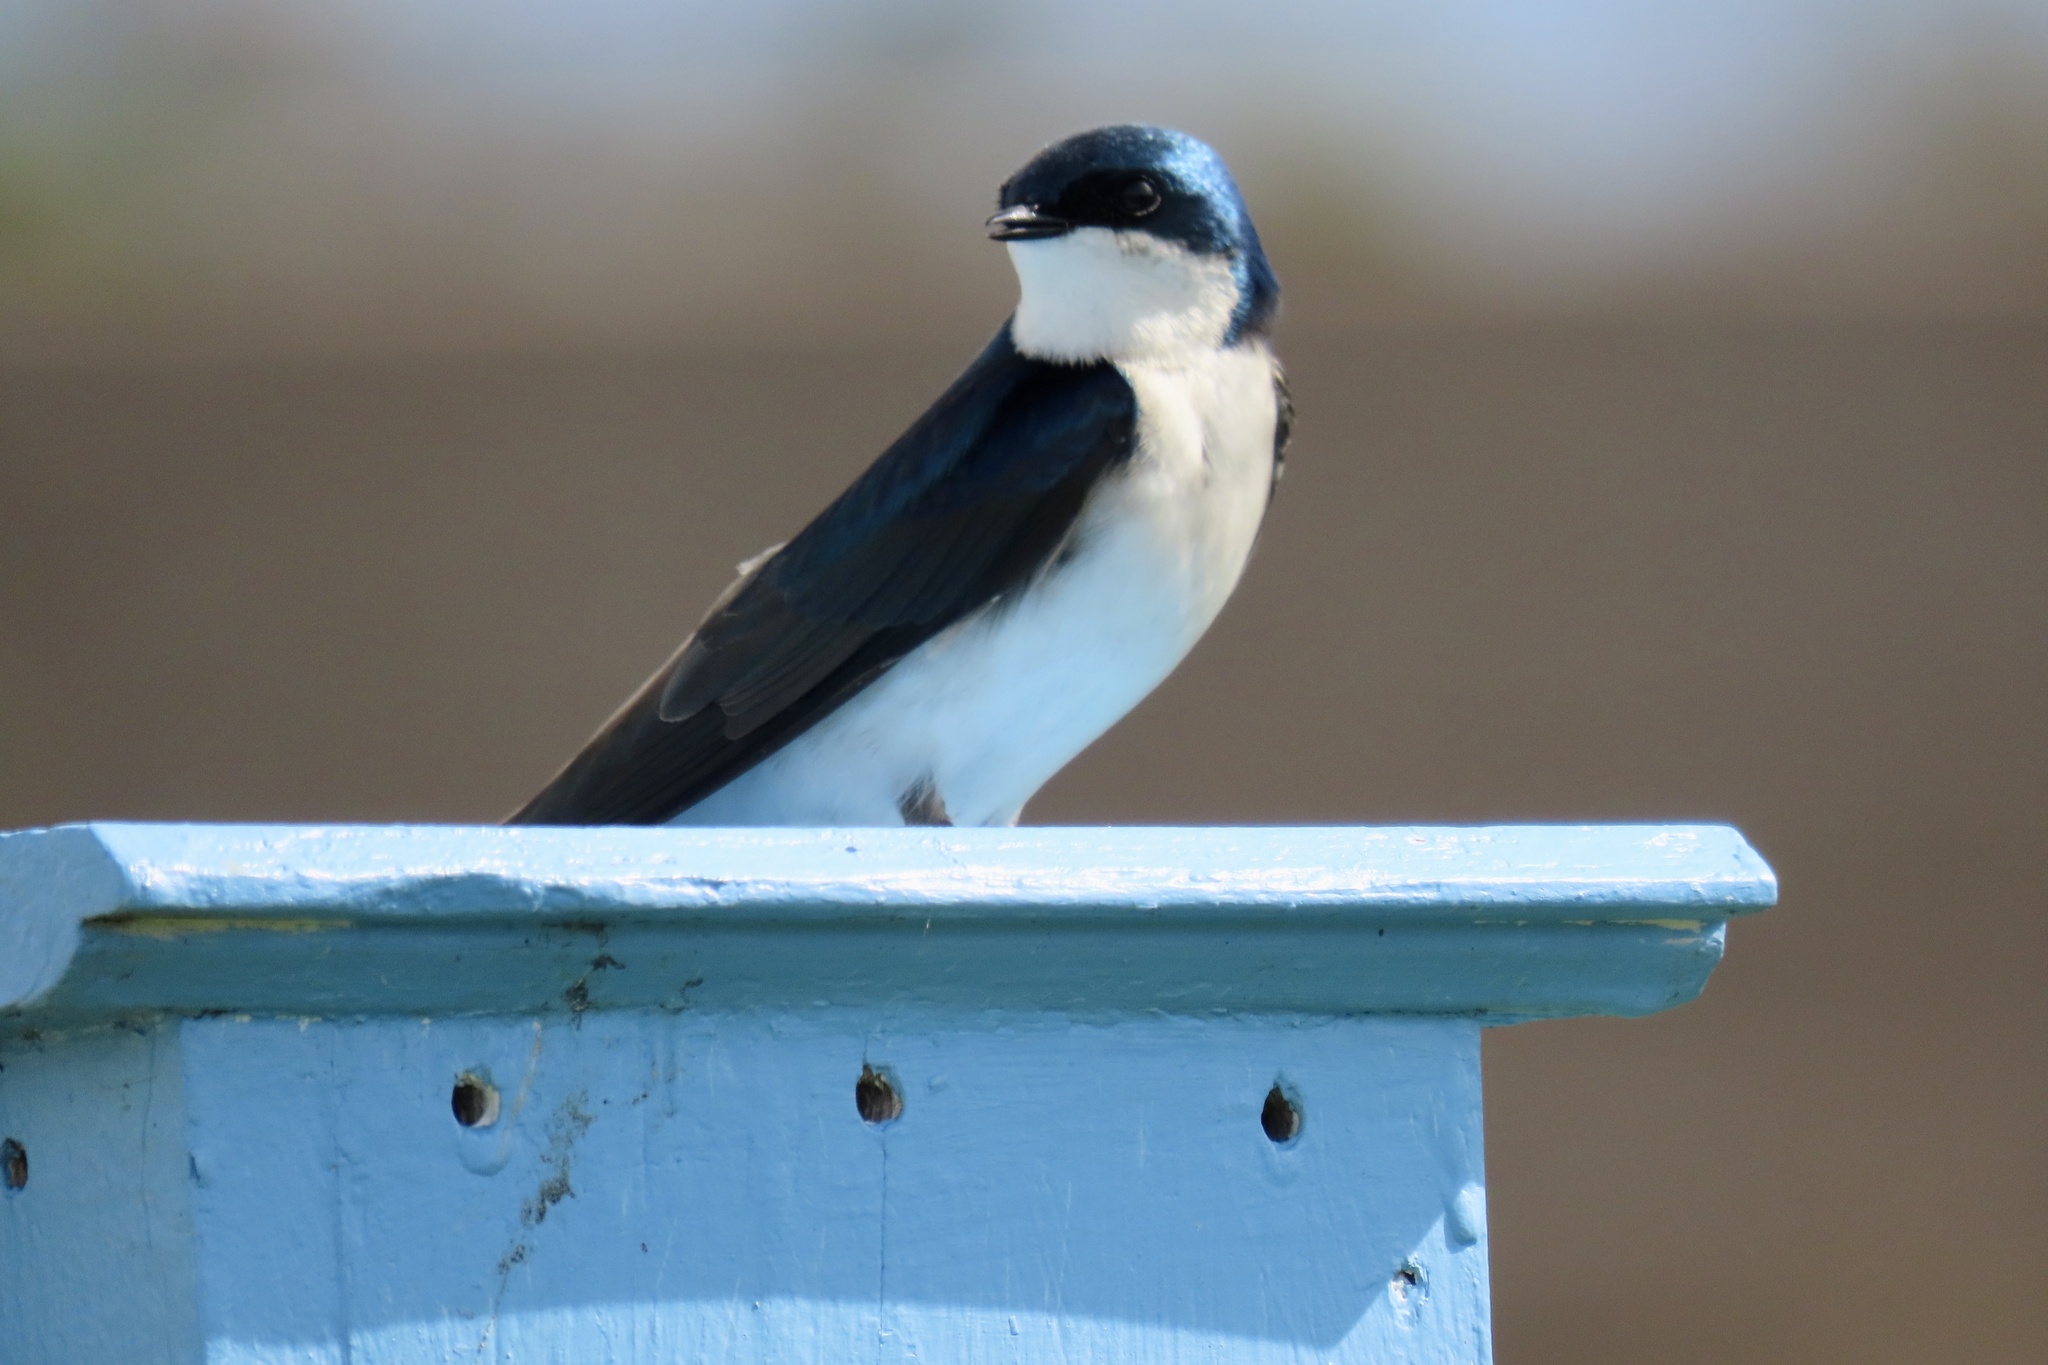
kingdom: Animalia
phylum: Chordata
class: Aves
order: Passeriformes
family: Hirundinidae
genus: Tachycineta
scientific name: Tachycineta bicolor
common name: Tree swallow
